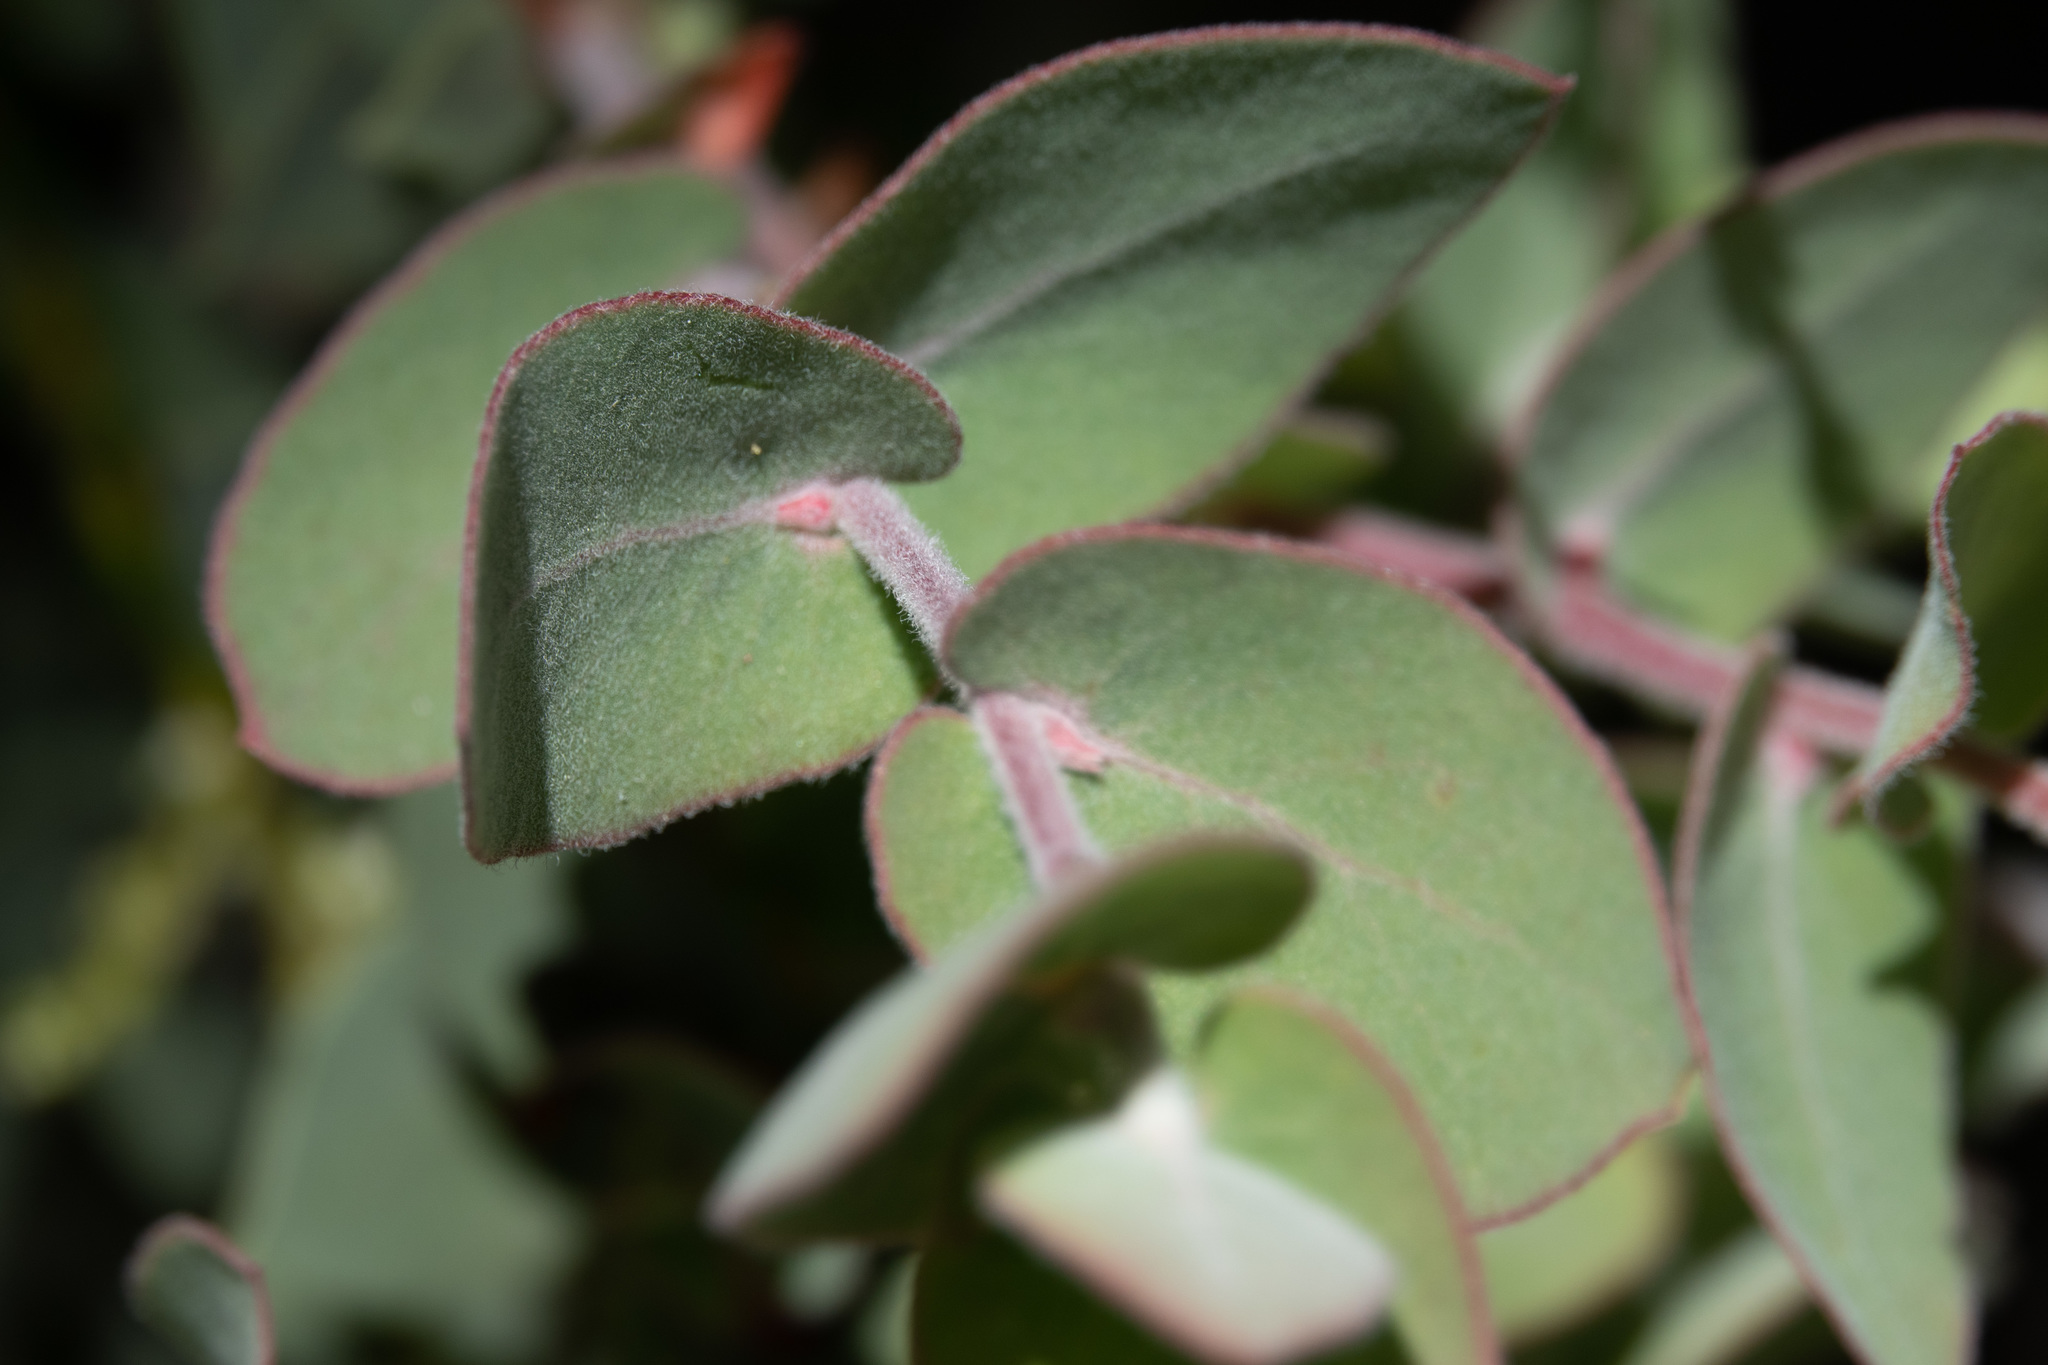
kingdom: Plantae
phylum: Tracheophyta
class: Magnoliopsida
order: Ericales
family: Ericaceae
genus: Arctostaphylos
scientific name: Arctostaphylos luciana
